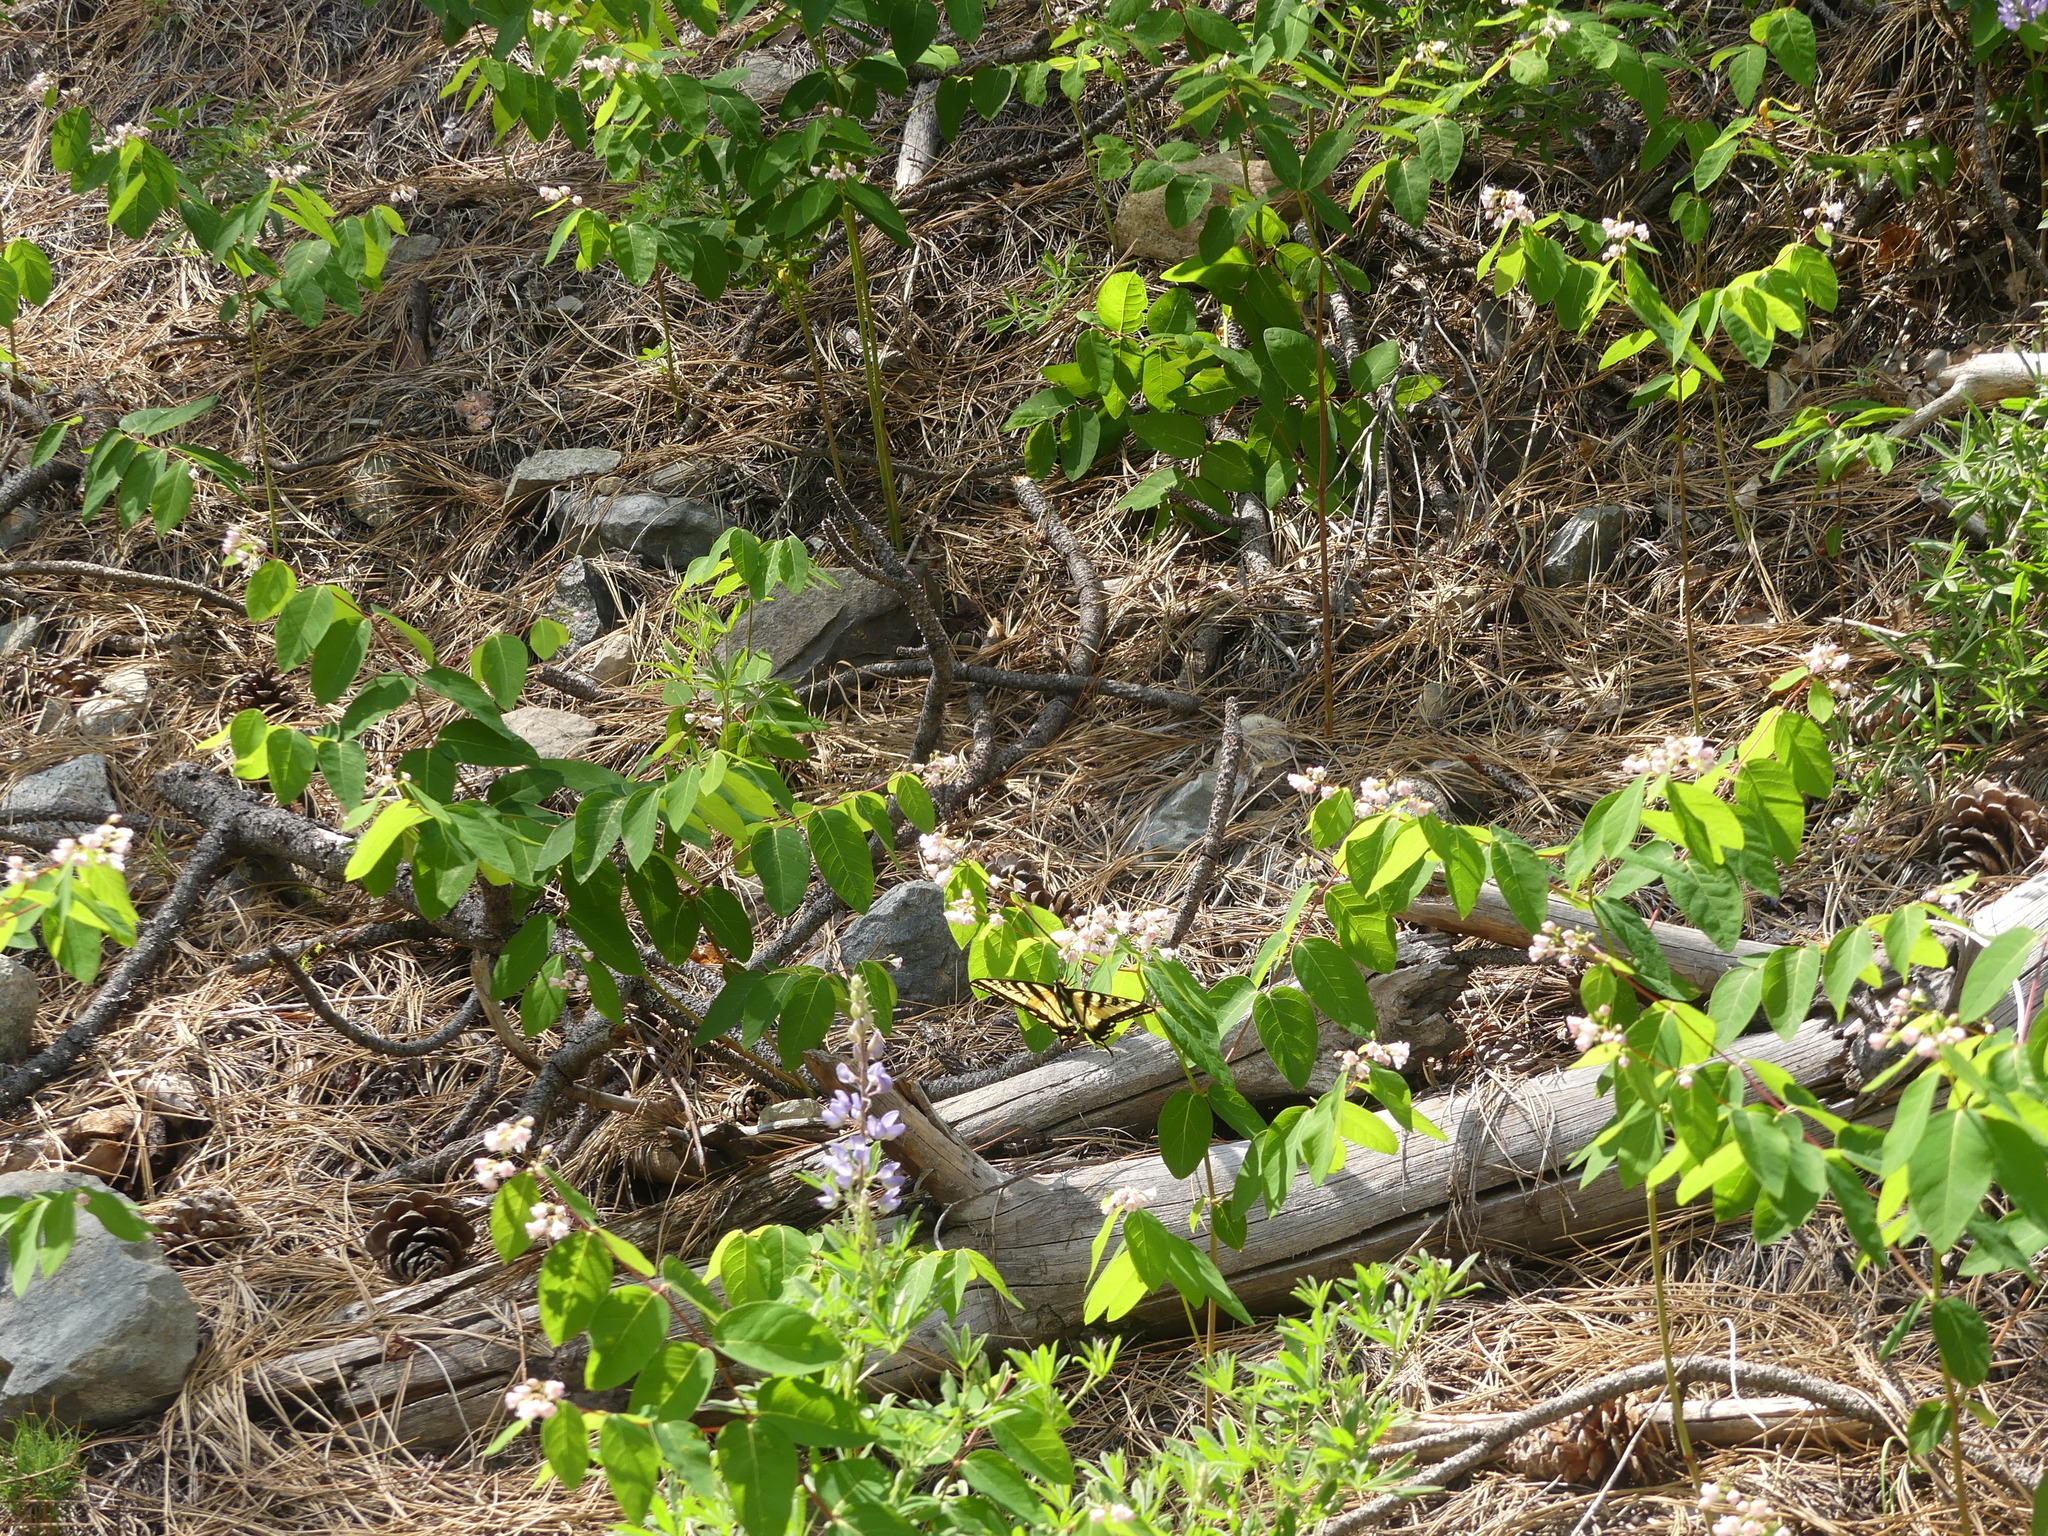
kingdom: Animalia
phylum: Arthropoda
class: Insecta
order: Lepidoptera
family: Papilionidae
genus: Papilio
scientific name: Papilio rutulus
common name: Western tiger swallowtail
